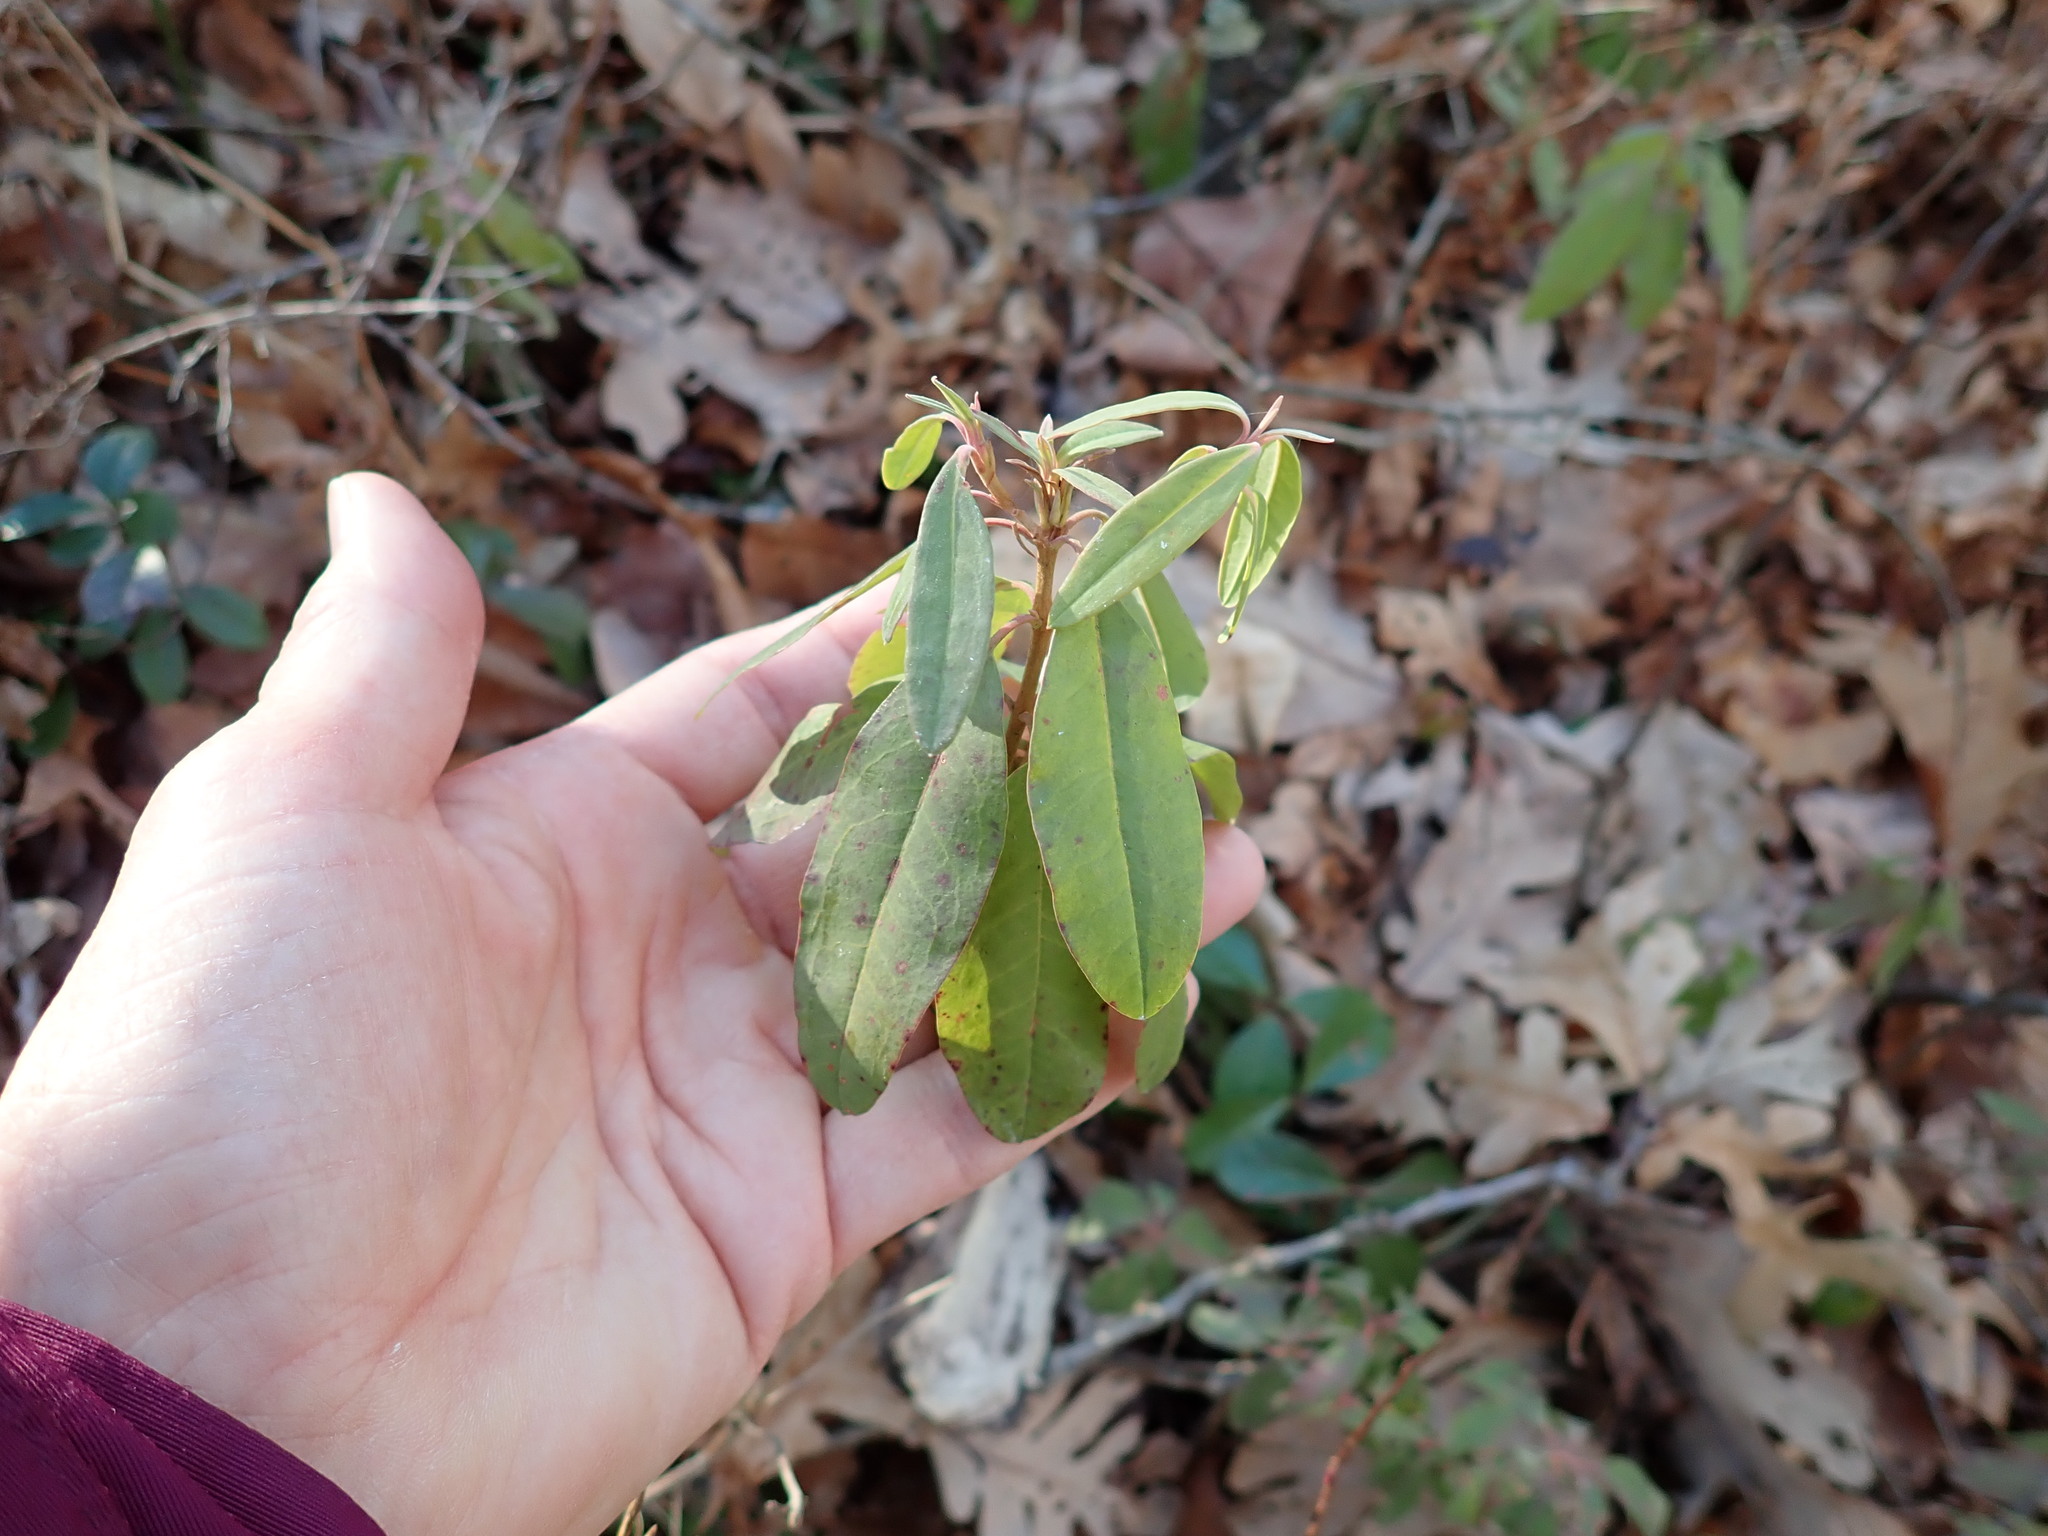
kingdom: Plantae
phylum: Tracheophyta
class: Magnoliopsida
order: Ericales
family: Ericaceae
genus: Kalmia
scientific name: Kalmia angustifolia
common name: Sheep-laurel
